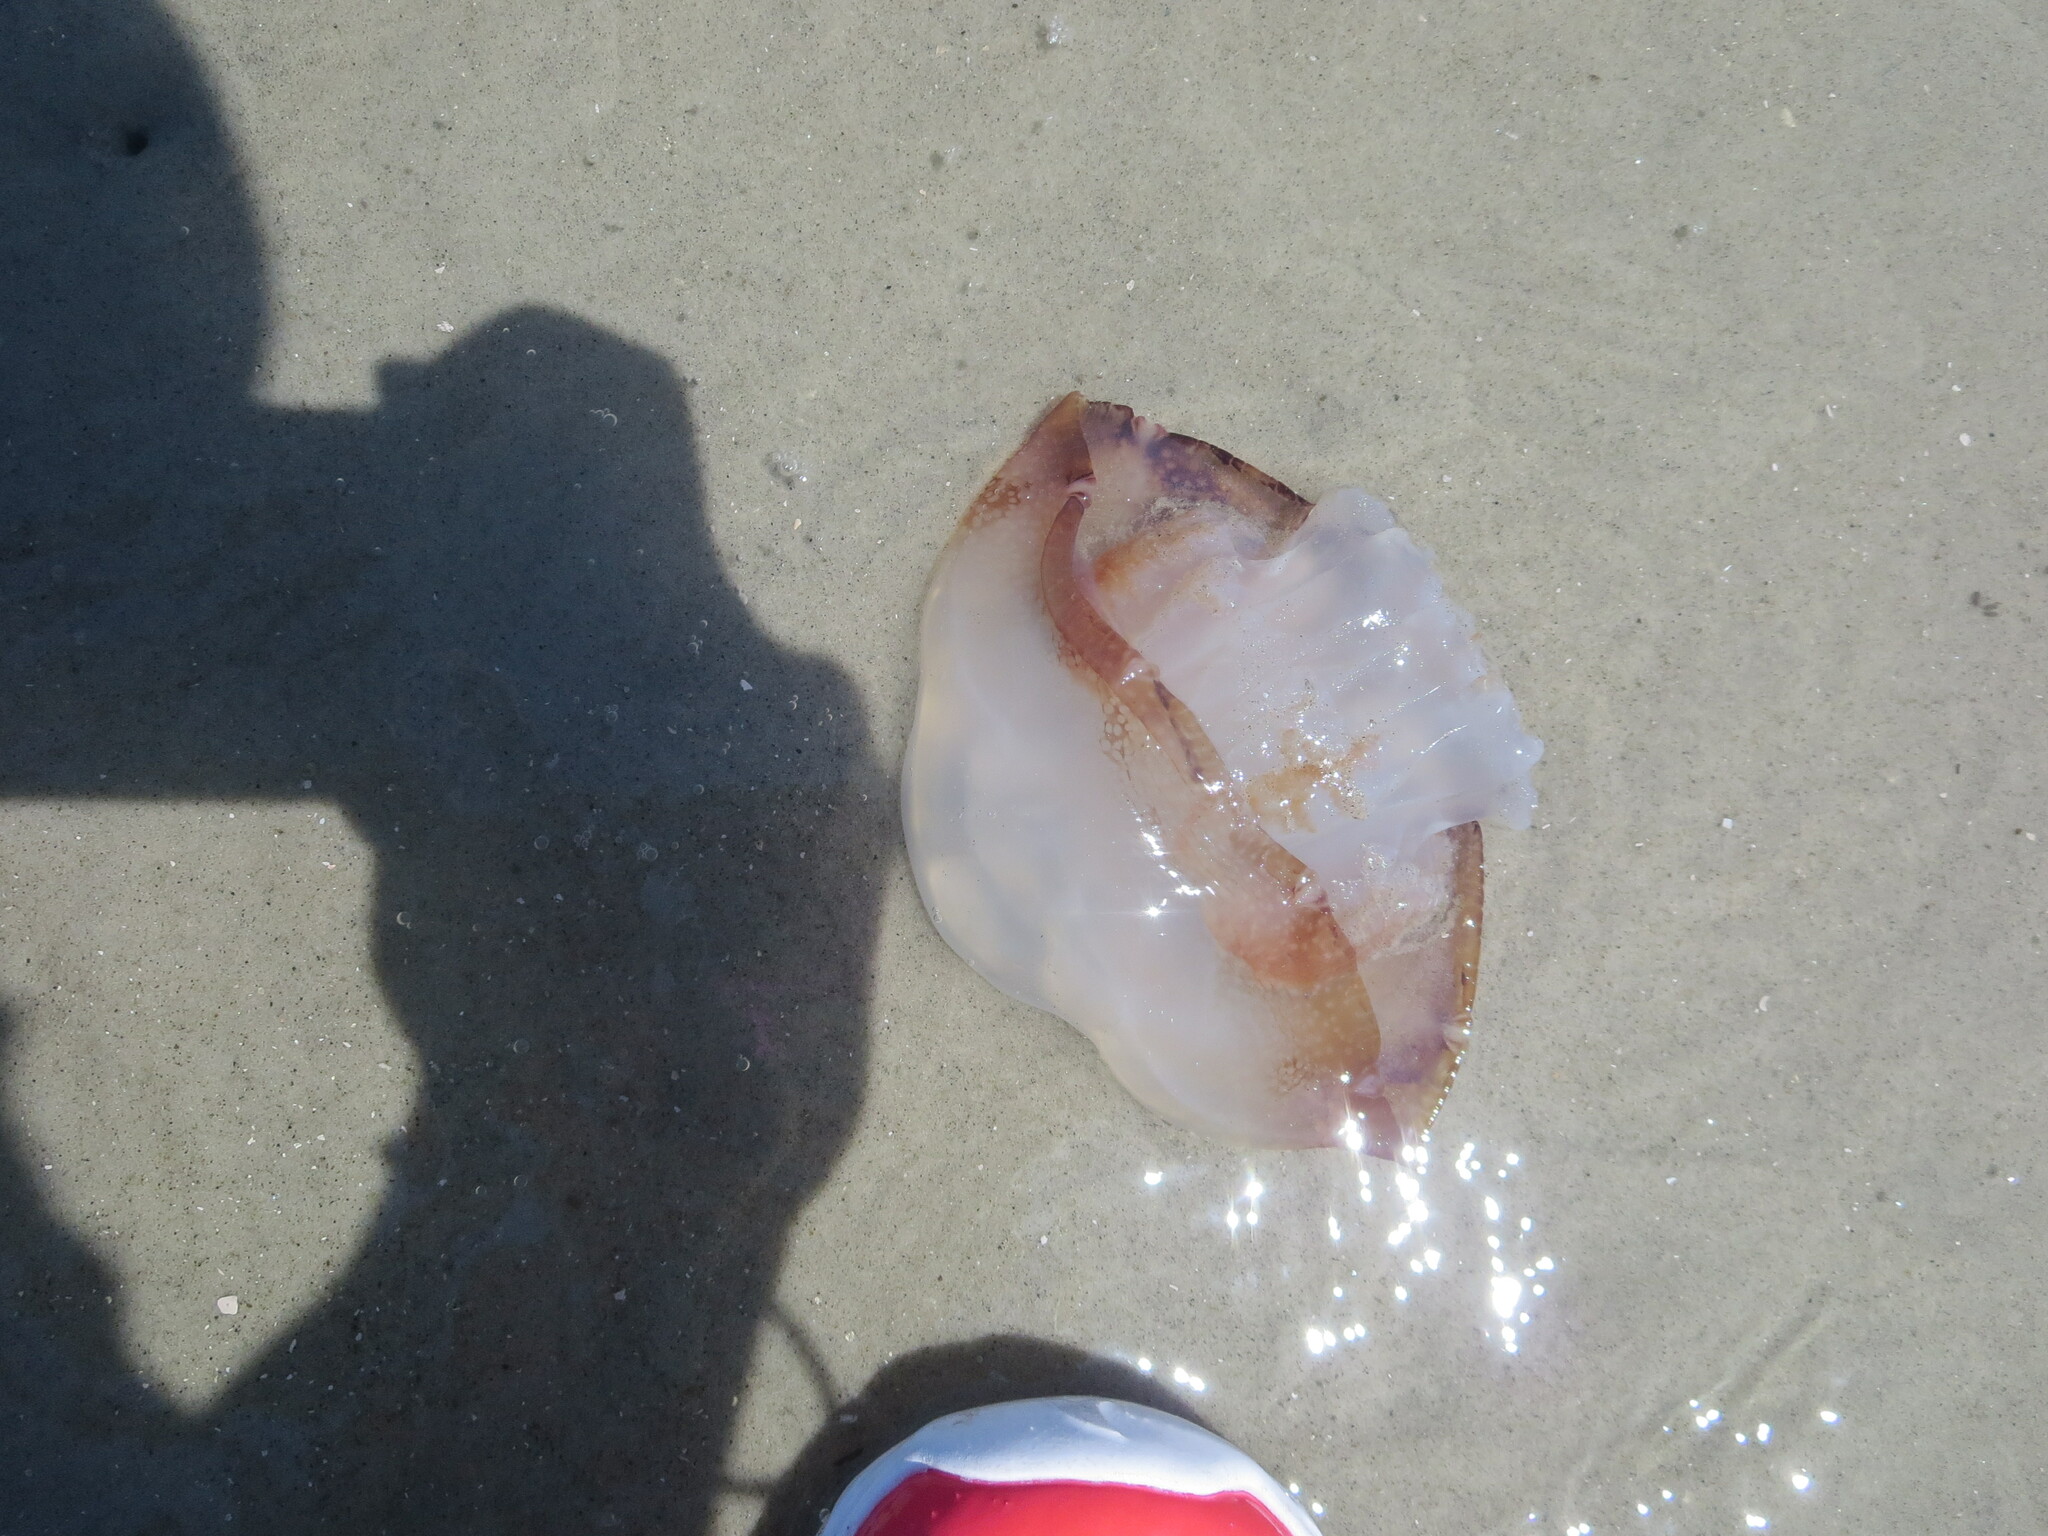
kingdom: Animalia
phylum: Cnidaria
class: Scyphozoa
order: Rhizostomeae
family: Stomolophidae
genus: Stomolophus
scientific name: Stomolophus meleagris
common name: Cabbagehead
